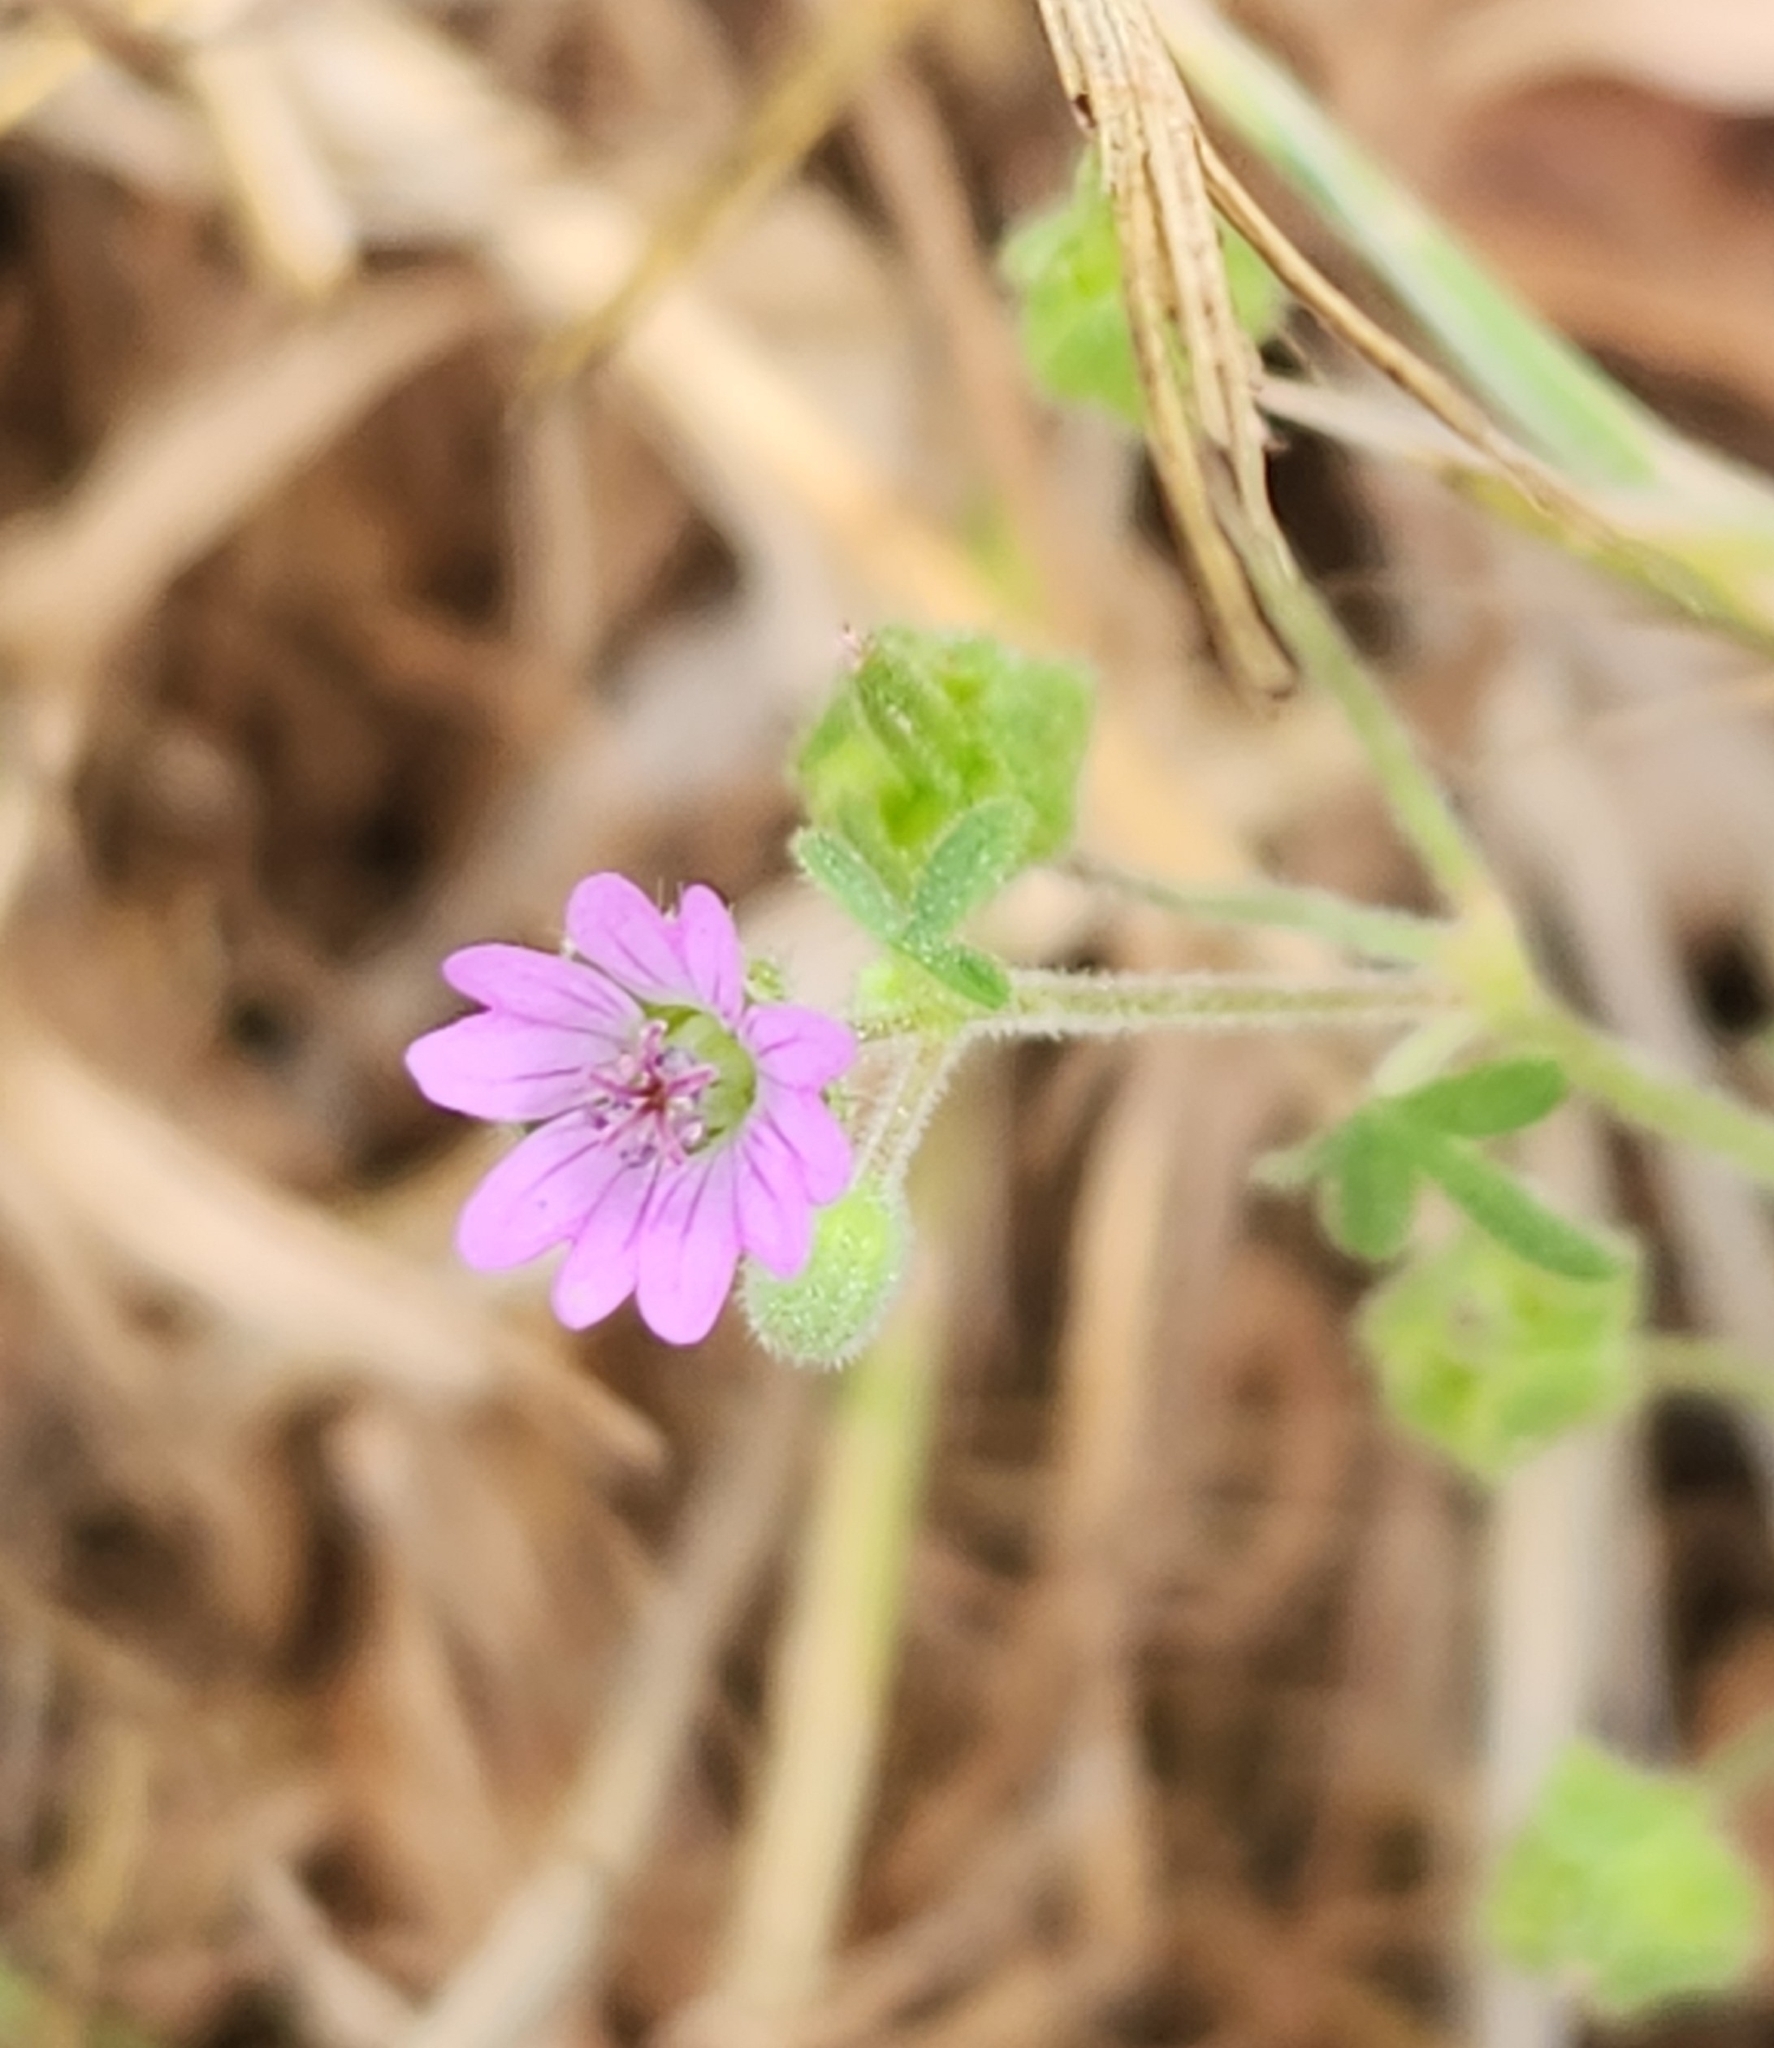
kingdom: Plantae
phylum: Tracheophyta
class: Magnoliopsida
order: Geraniales
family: Geraniaceae
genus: Geranium
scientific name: Geranium molle
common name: Dove's-foot crane's-bill
